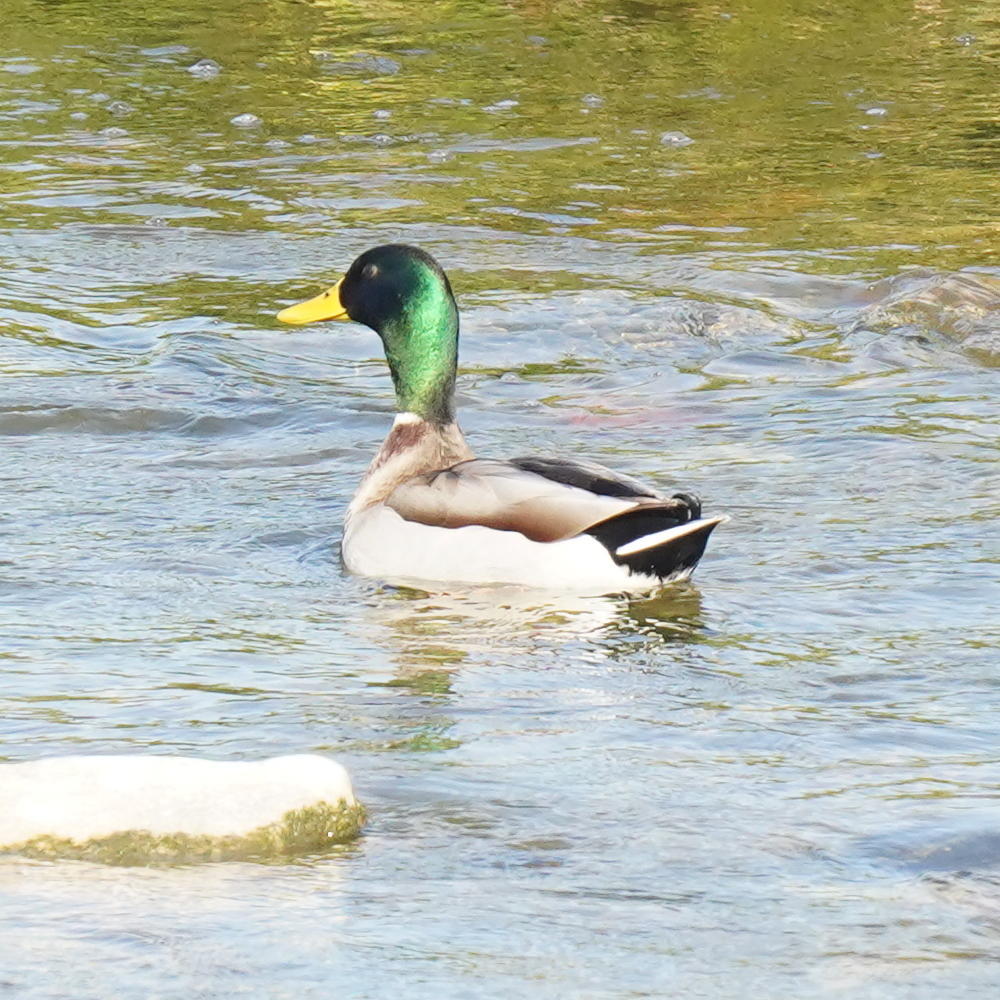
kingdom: Animalia
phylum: Chordata
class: Aves
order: Anseriformes
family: Anatidae
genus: Anas
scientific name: Anas platyrhynchos
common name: Mallard
